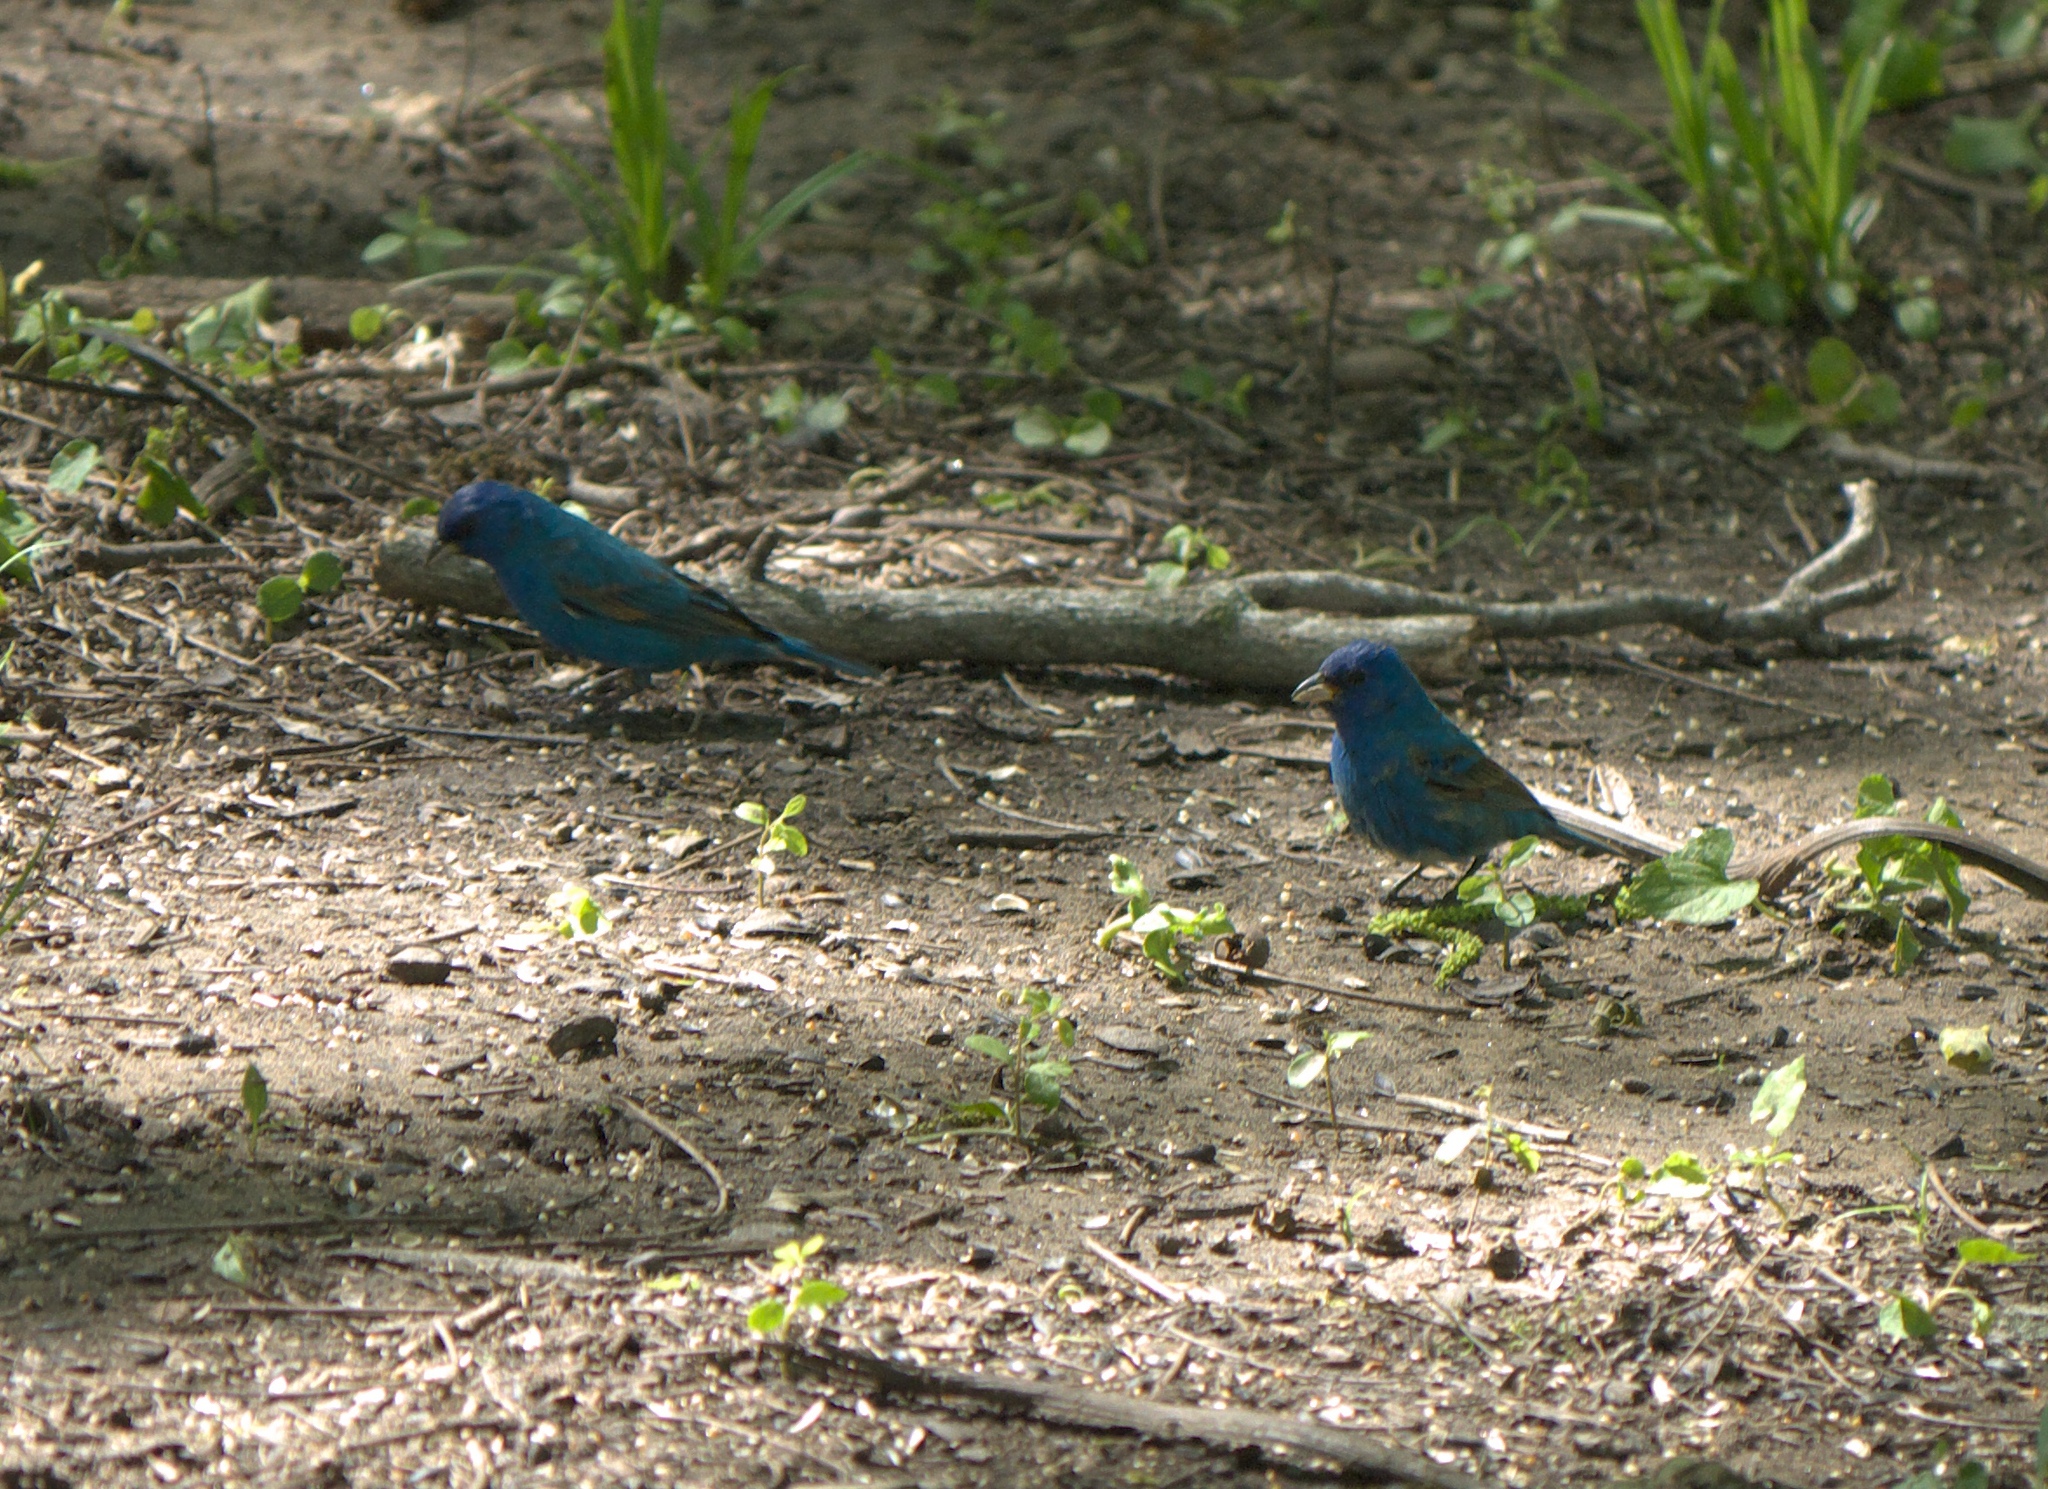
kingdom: Animalia
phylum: Chordata
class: Aves
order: Passeriformes
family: Cardinalidae
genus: Passerina
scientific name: Passerina cyanea
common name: Indigo bunting
